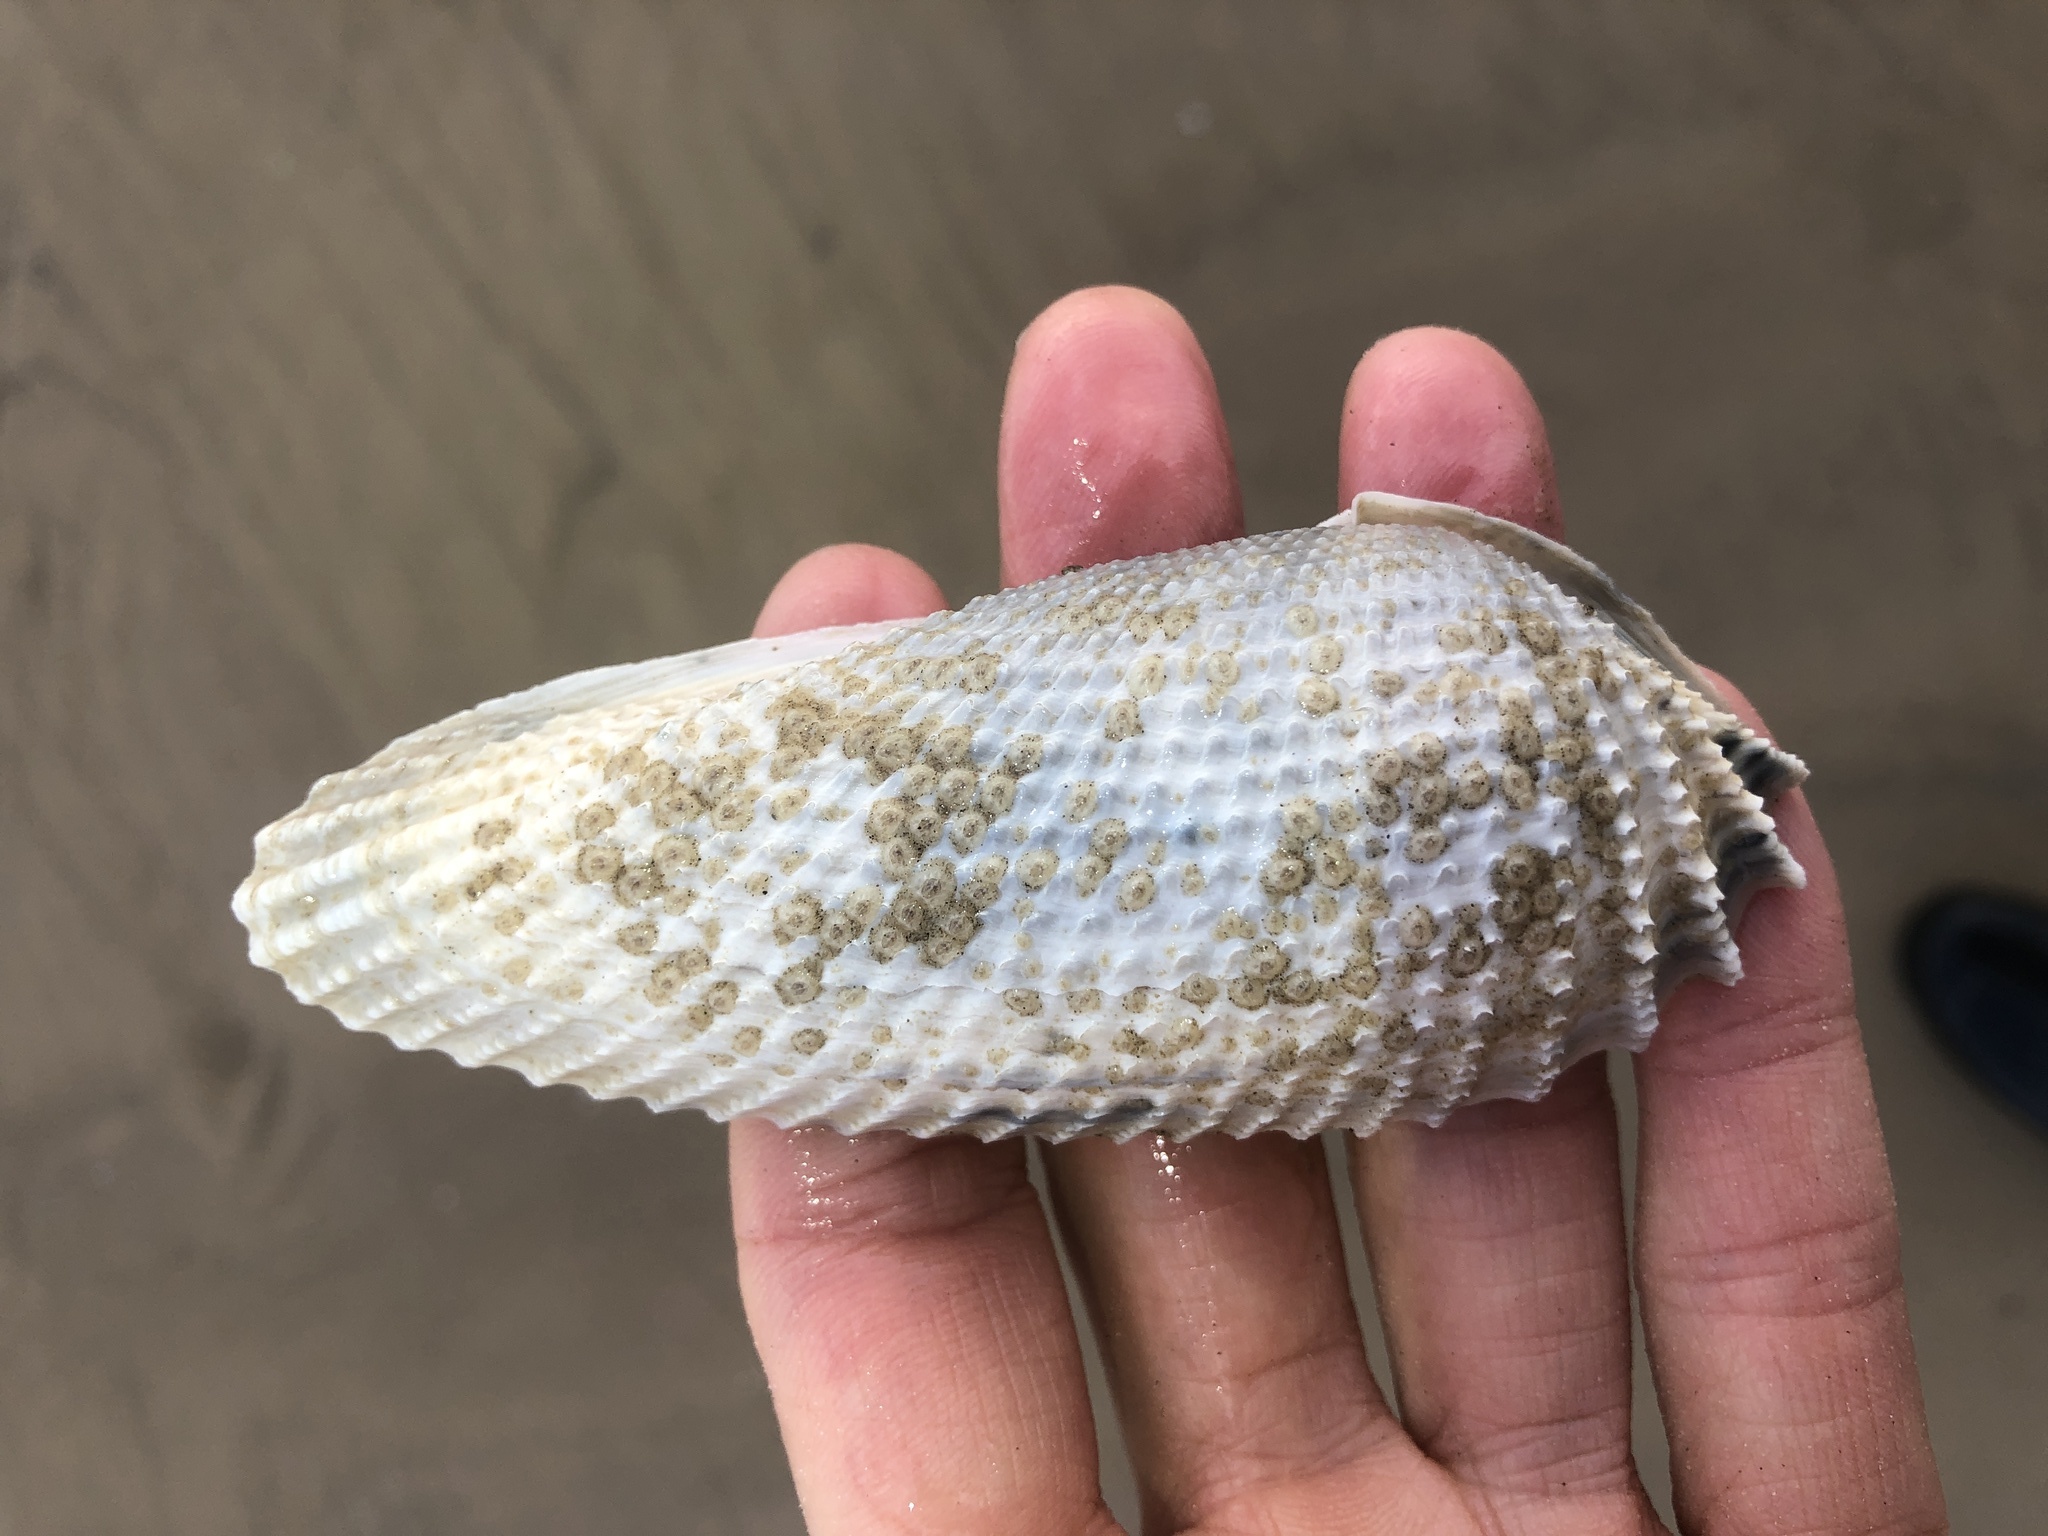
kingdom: Animalia
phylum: Mollusca
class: Bivalvia
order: Myida
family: Pholadidae
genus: Cyrtopleura
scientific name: Cyrtopleura costata
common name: Angel wing
